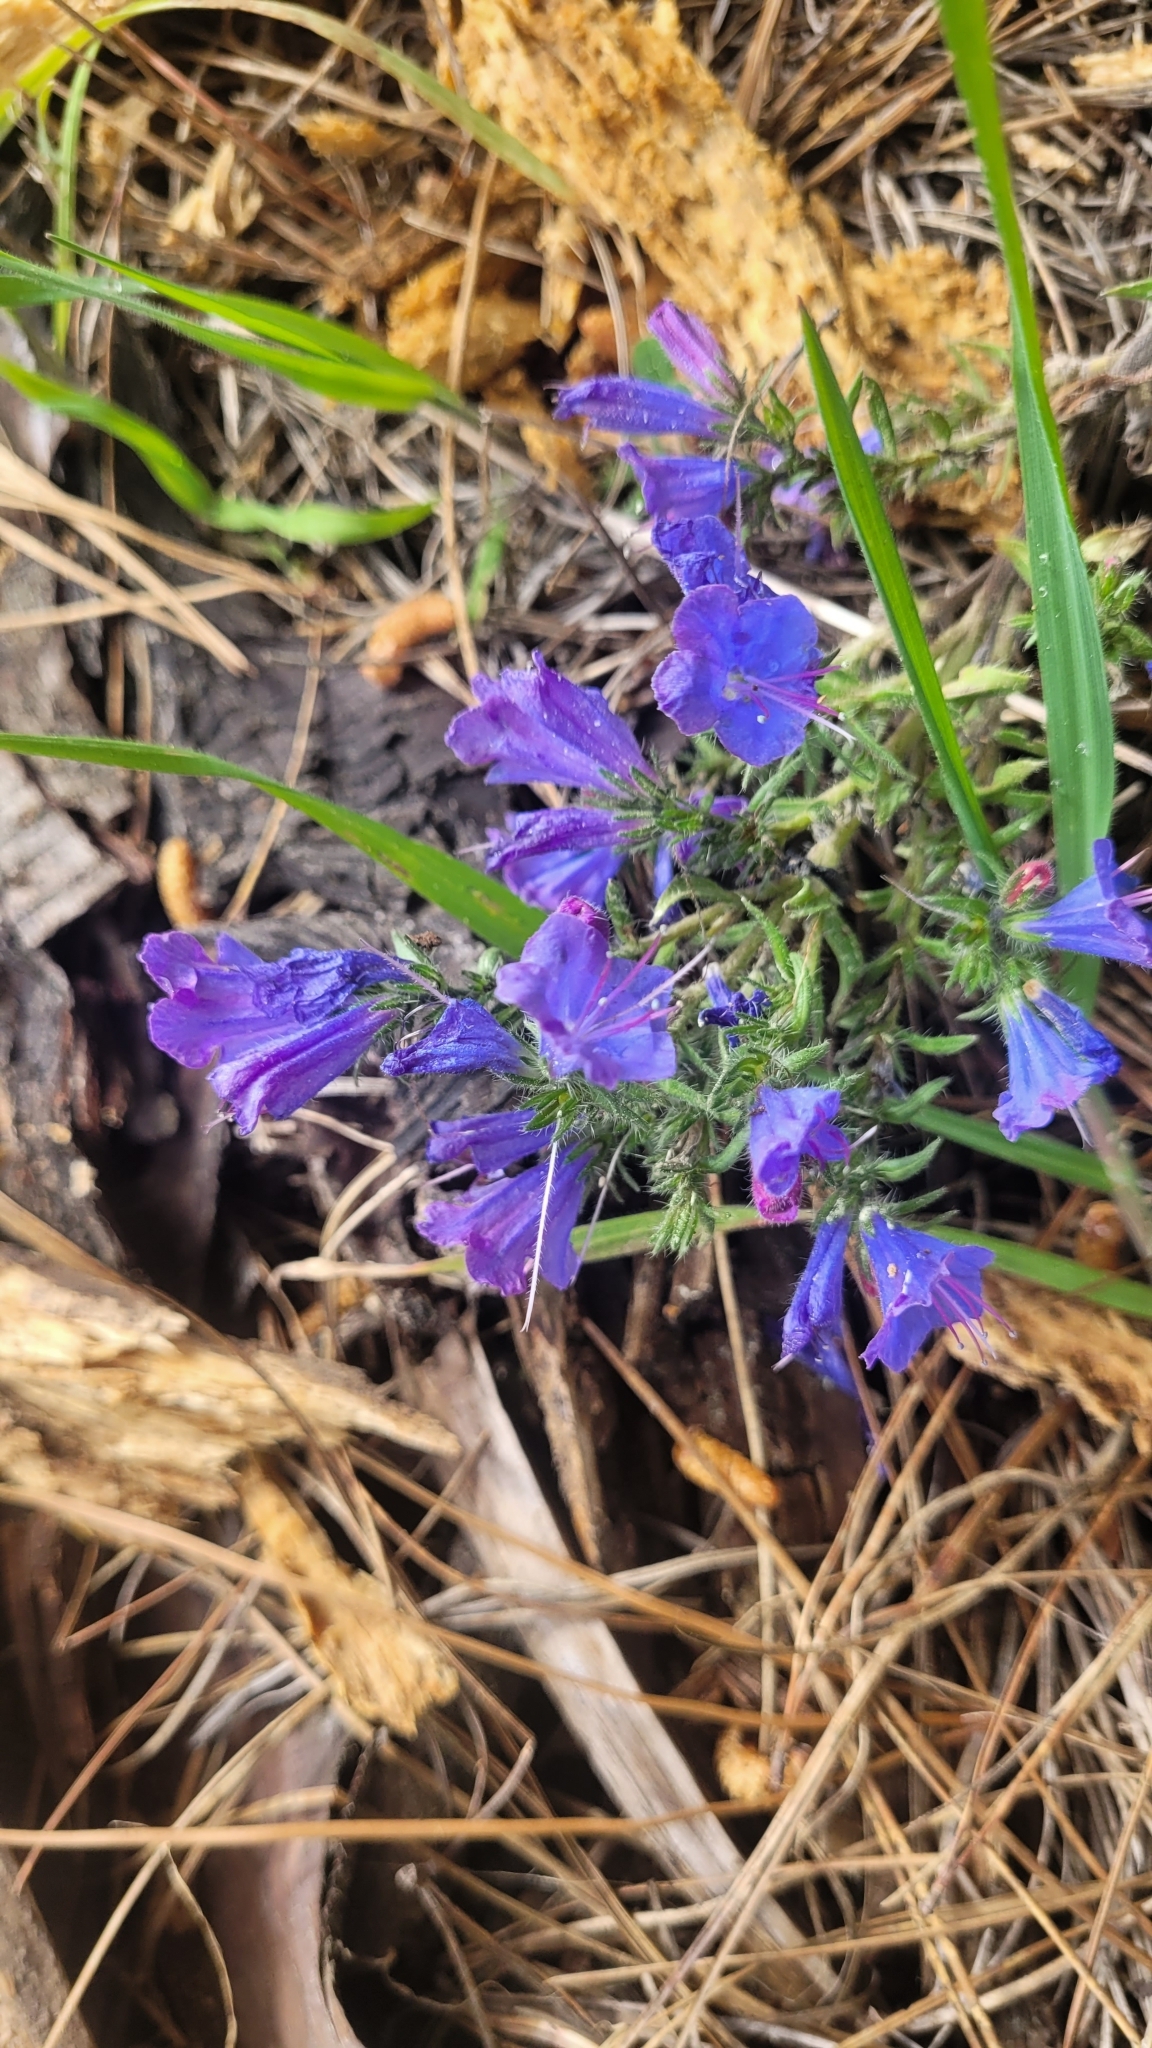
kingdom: Plantae
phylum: Tracheophyta
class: Magnoliopsida
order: Boraginales
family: Boraginaceae
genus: Echium
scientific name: Echium vulgare
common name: Common viper's bugloss
